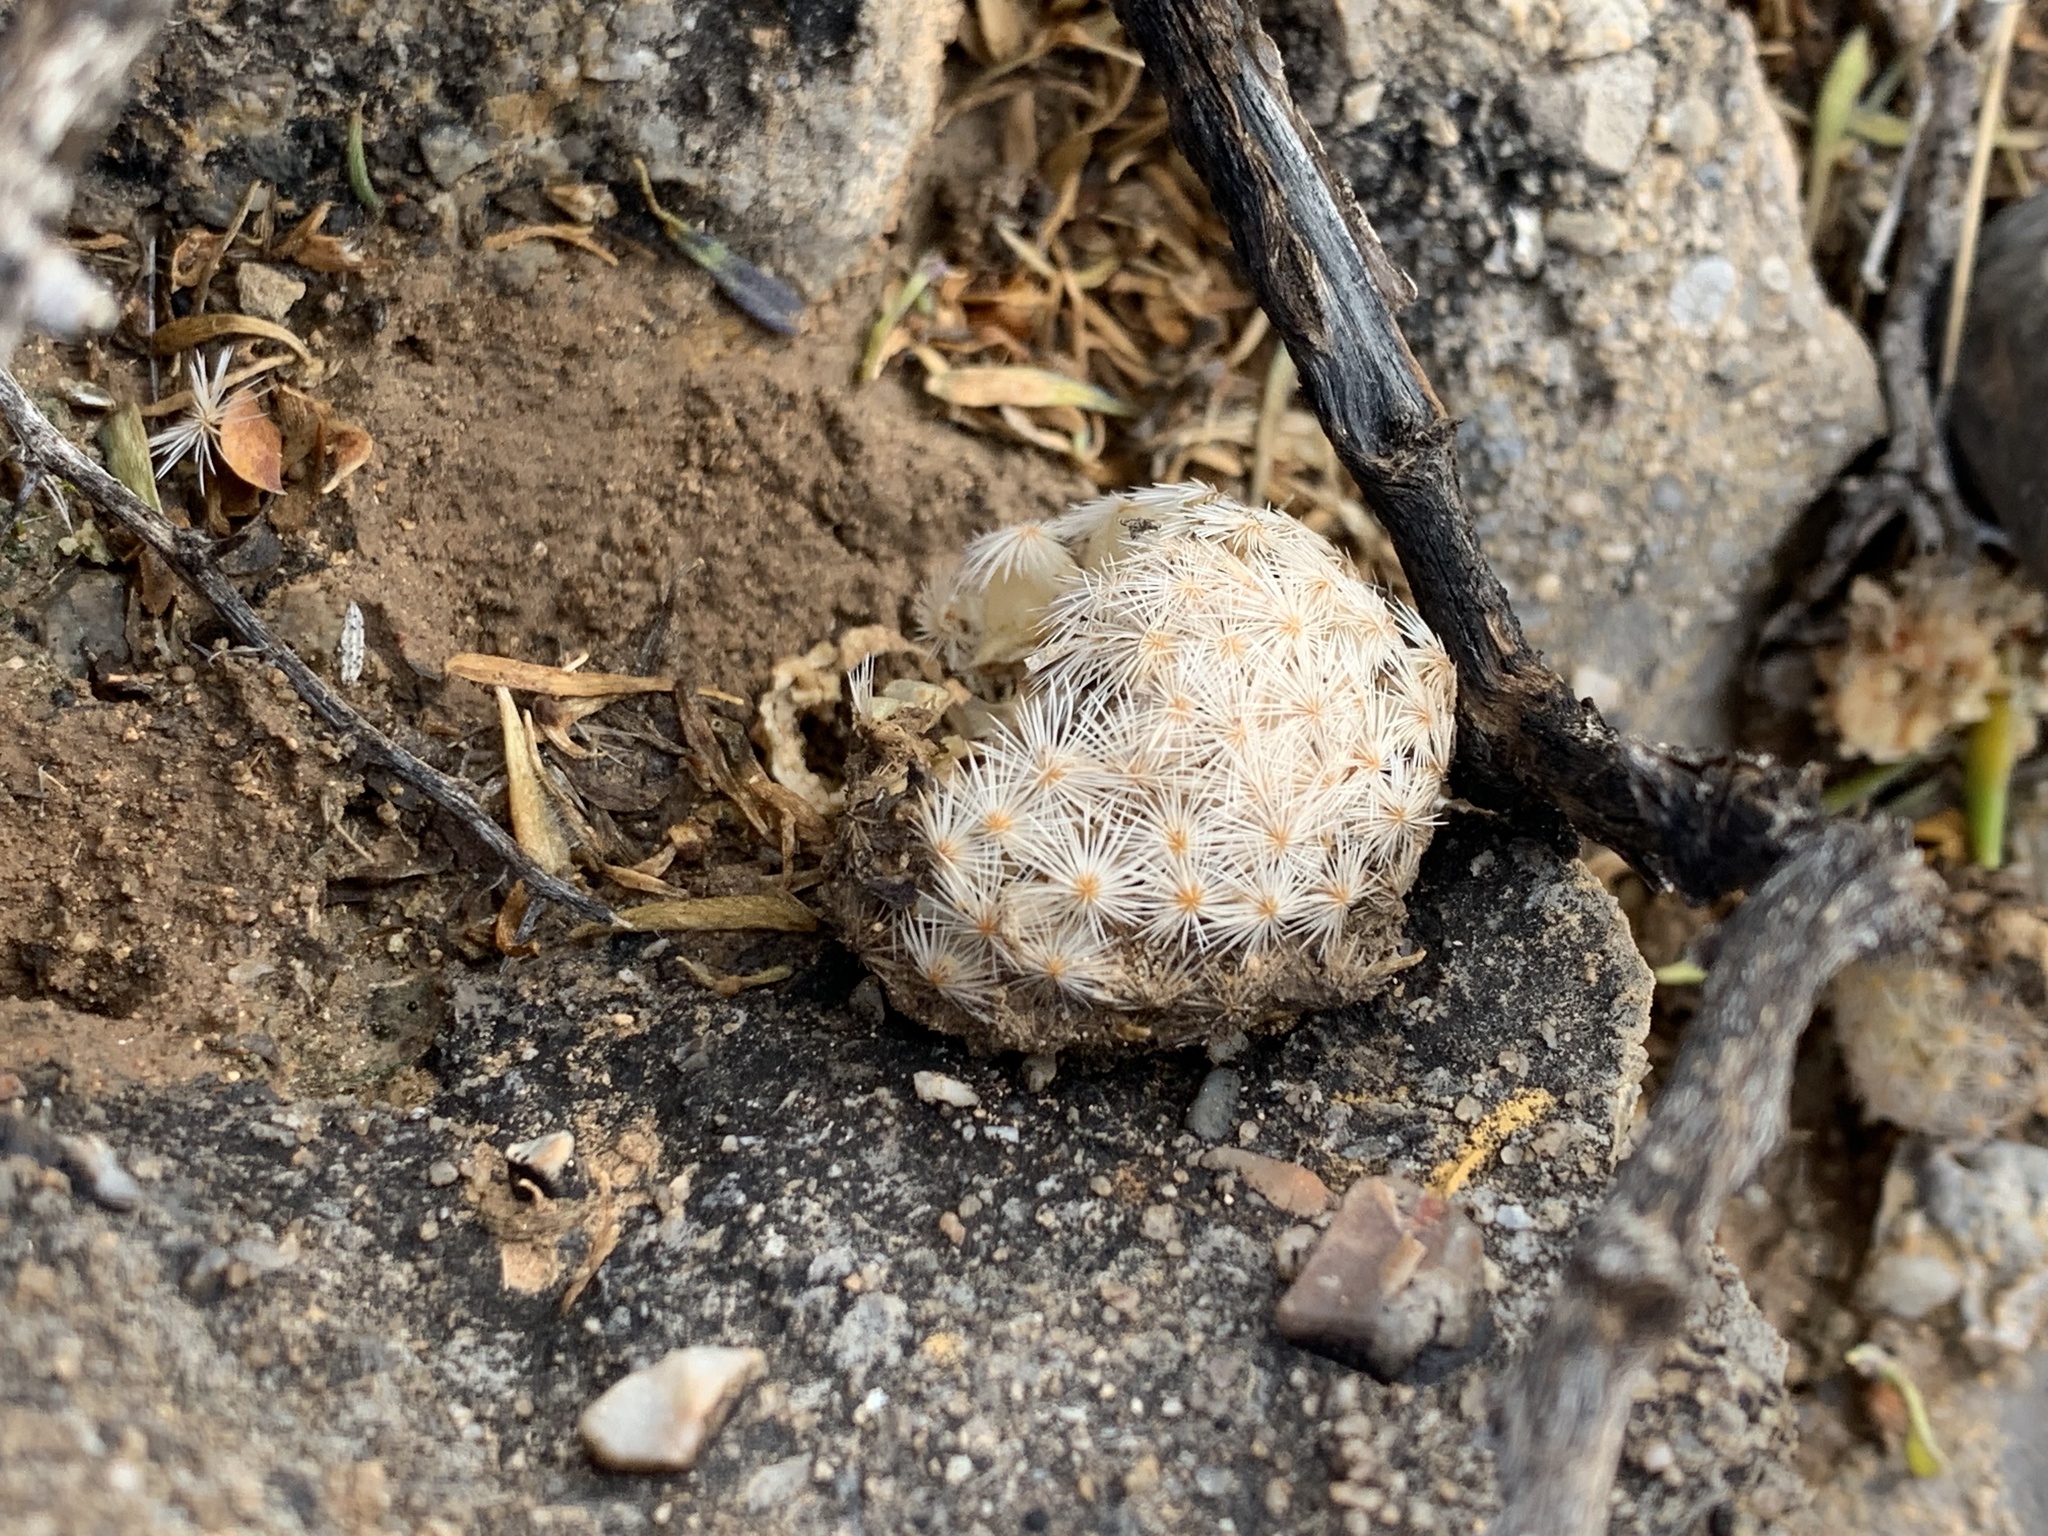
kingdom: Plantae
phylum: Tracheophyta
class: Magnoliopsida
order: Caryophyllales
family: Cactaceae
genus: Mammillaria
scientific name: Mammillaria lasiacantha
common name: Lace-spine nipple cactus
